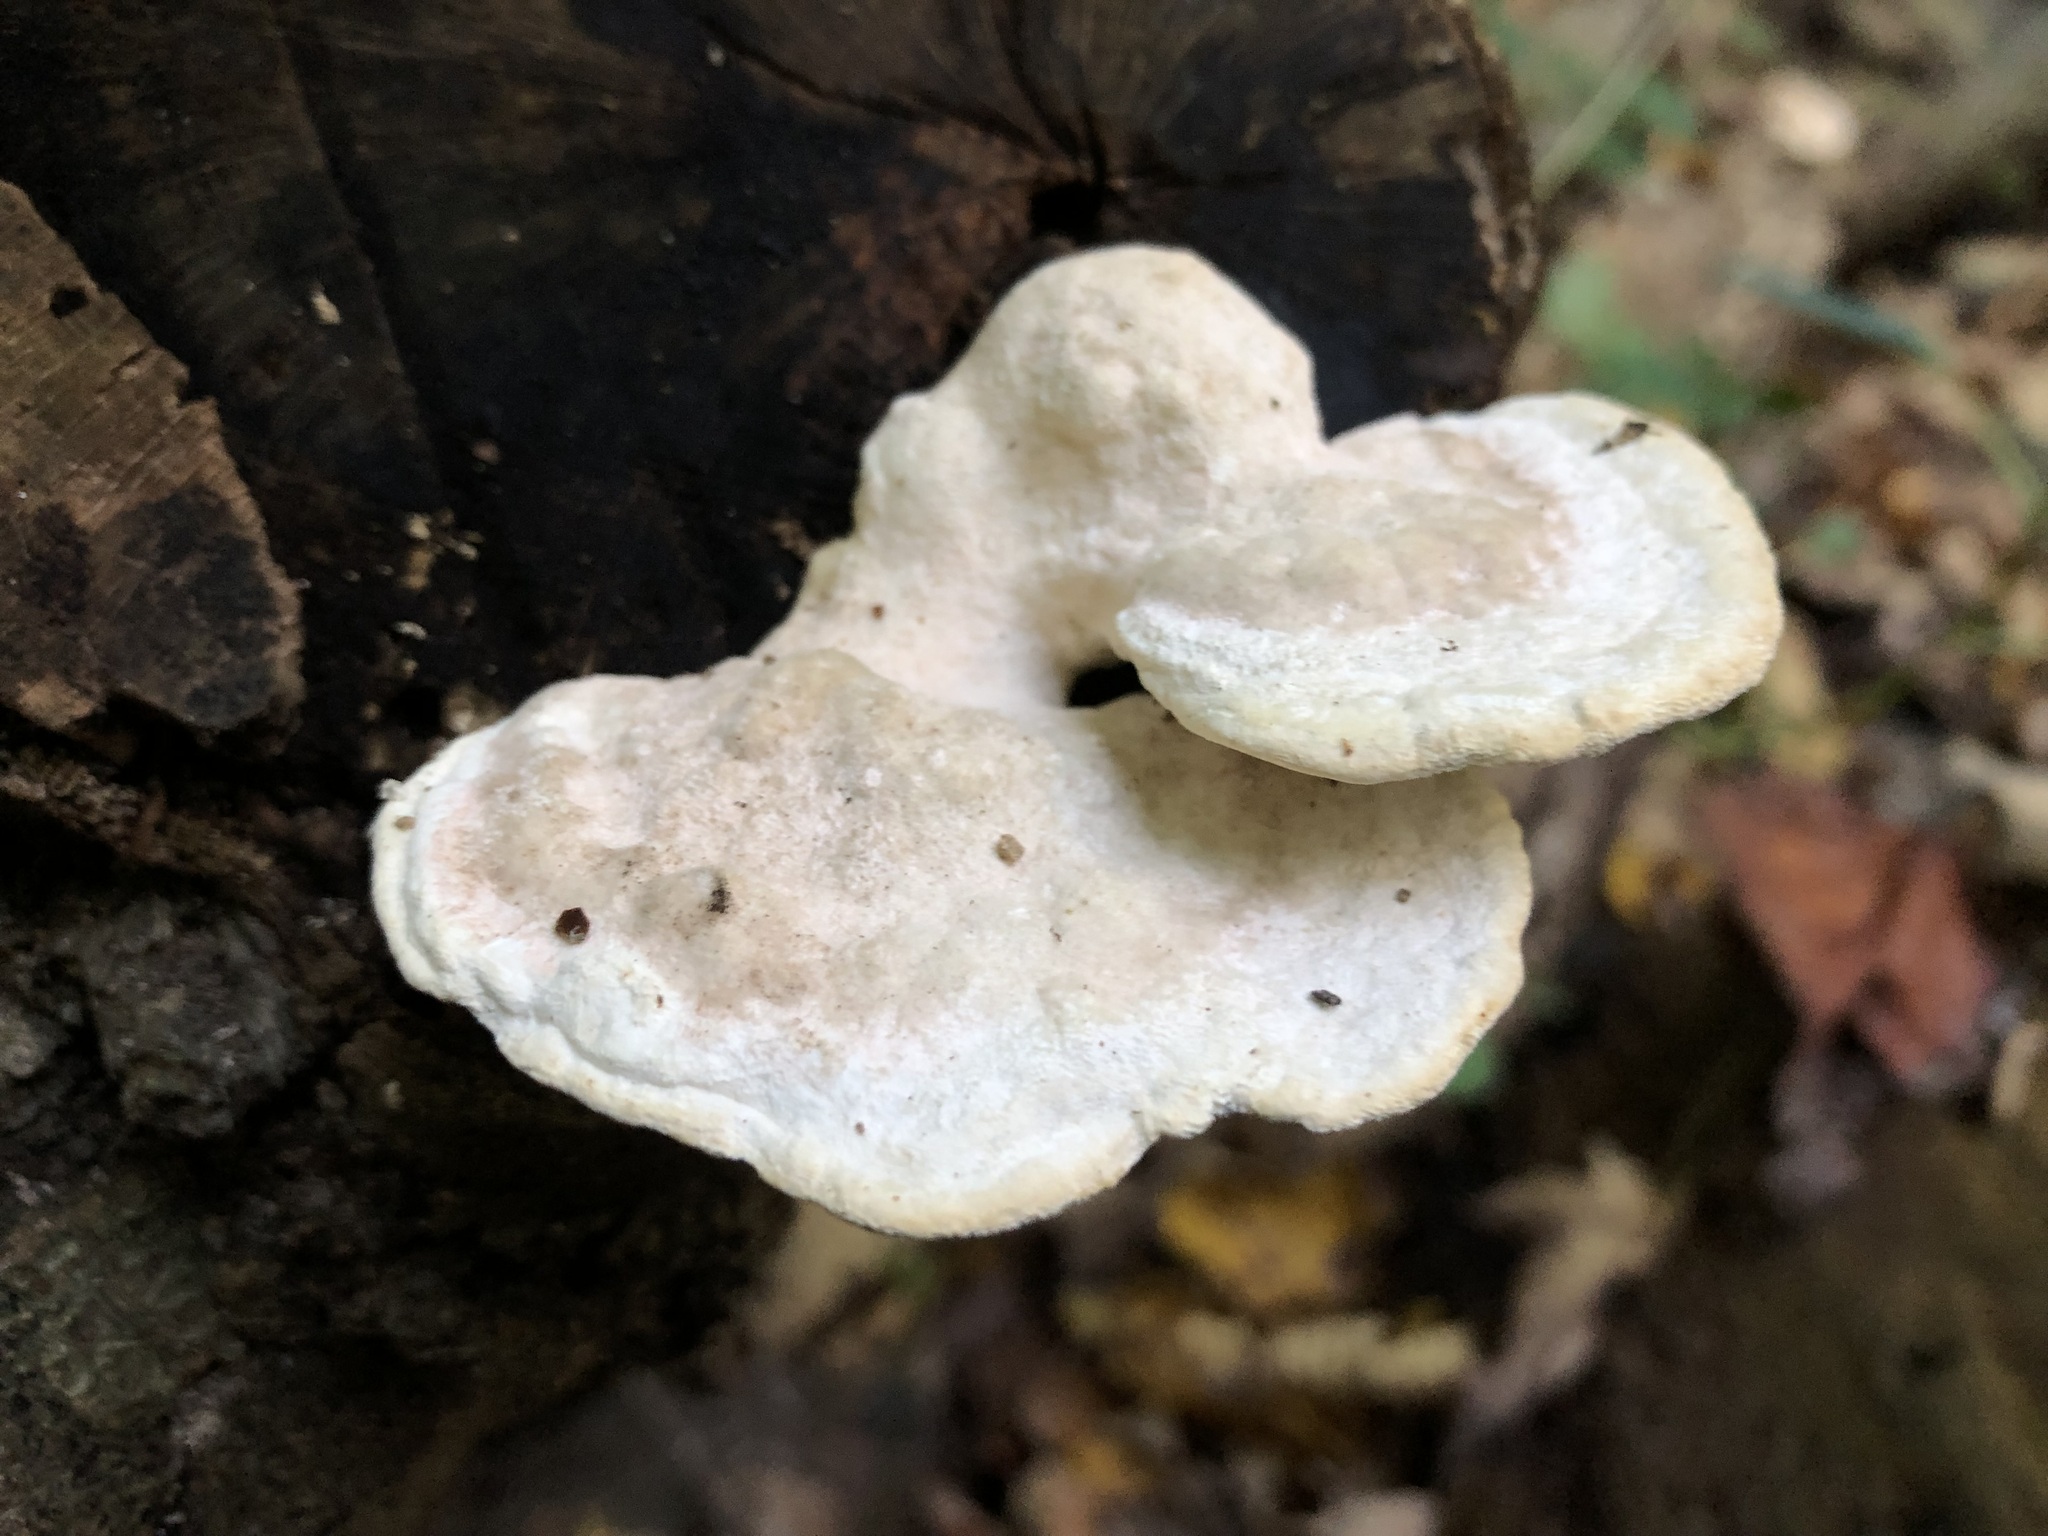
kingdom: Fungi
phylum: Basidiomycota
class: Agaricomycetes
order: Polyporales
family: Polyporaceae
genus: Trametes
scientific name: Trametes gibbosa
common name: Lumpy bracket
